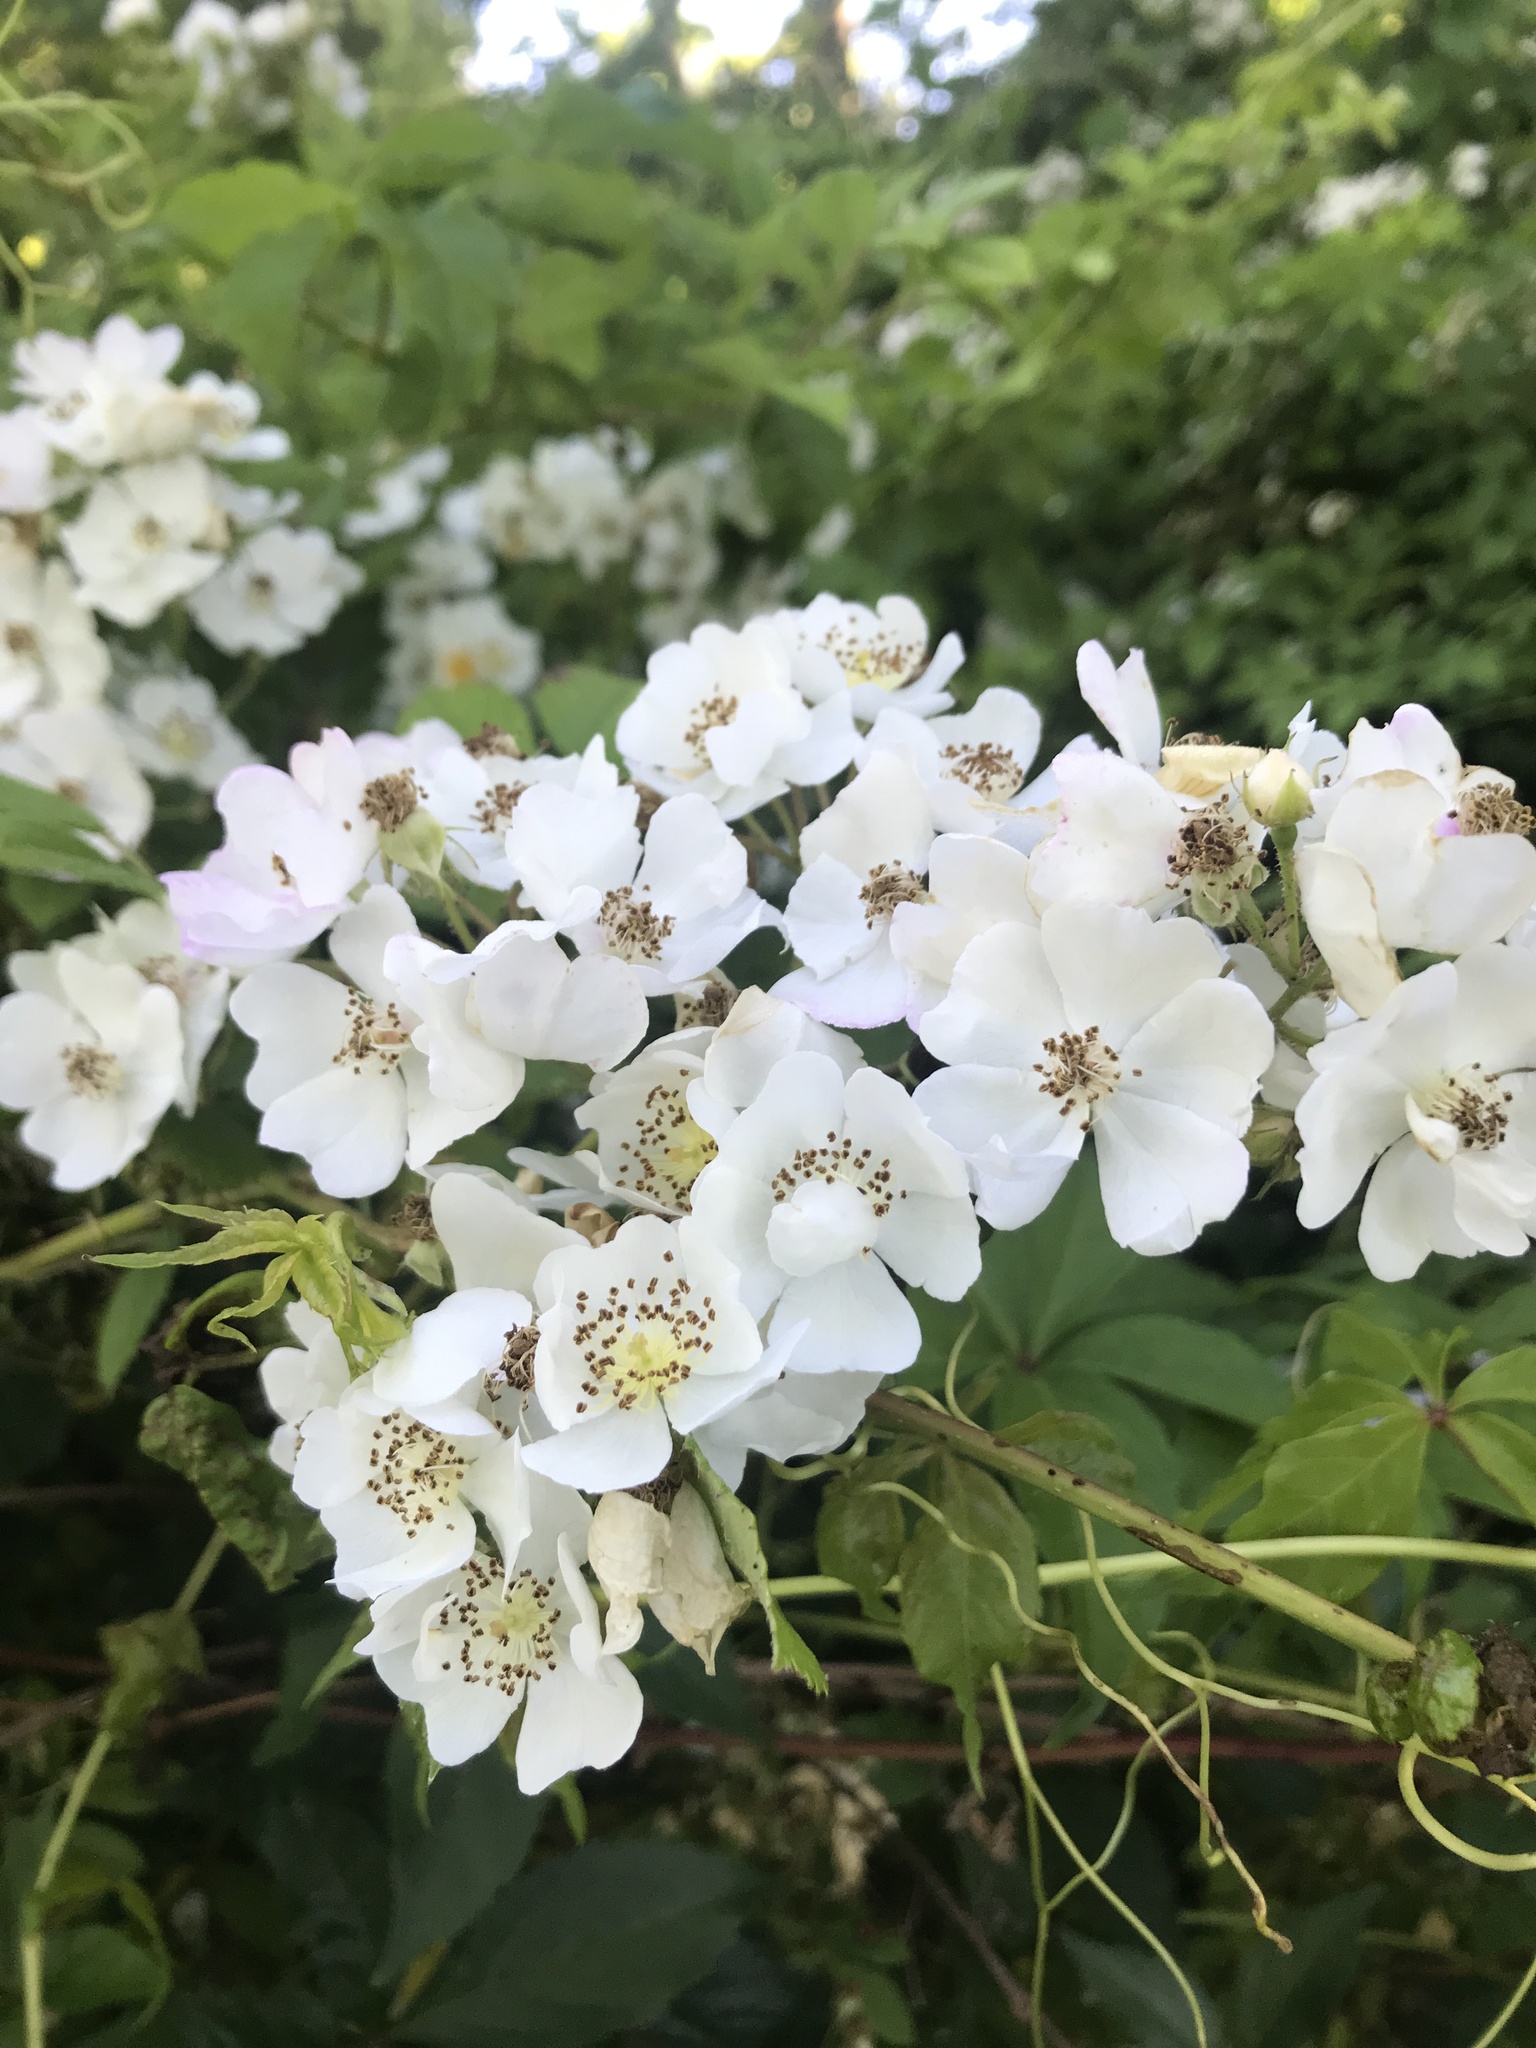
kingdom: Plantae
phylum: Tracheophyta
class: Magnoliopsida
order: Rosales
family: Rosaceae
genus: Rosa
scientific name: Rosa multiflora
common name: Multiflora rose
